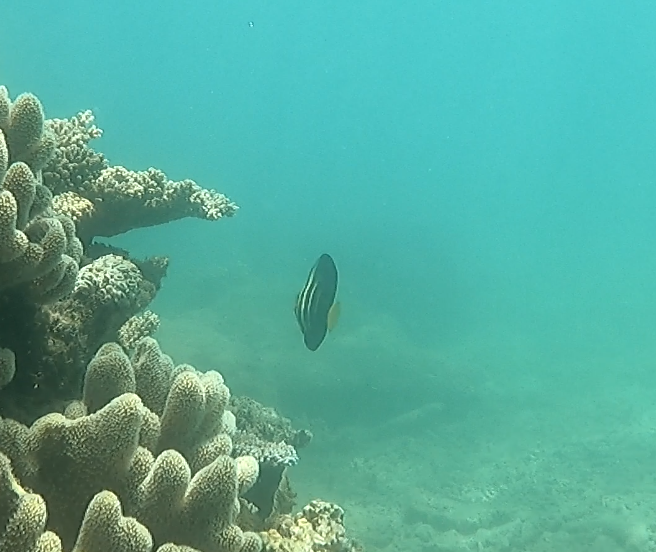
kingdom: Animalia
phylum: Chordata
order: Perciformes
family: Acanthuridae
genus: Zebrasoma
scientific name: Zebrasoma veliferum
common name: Sailfin surgeonfish
